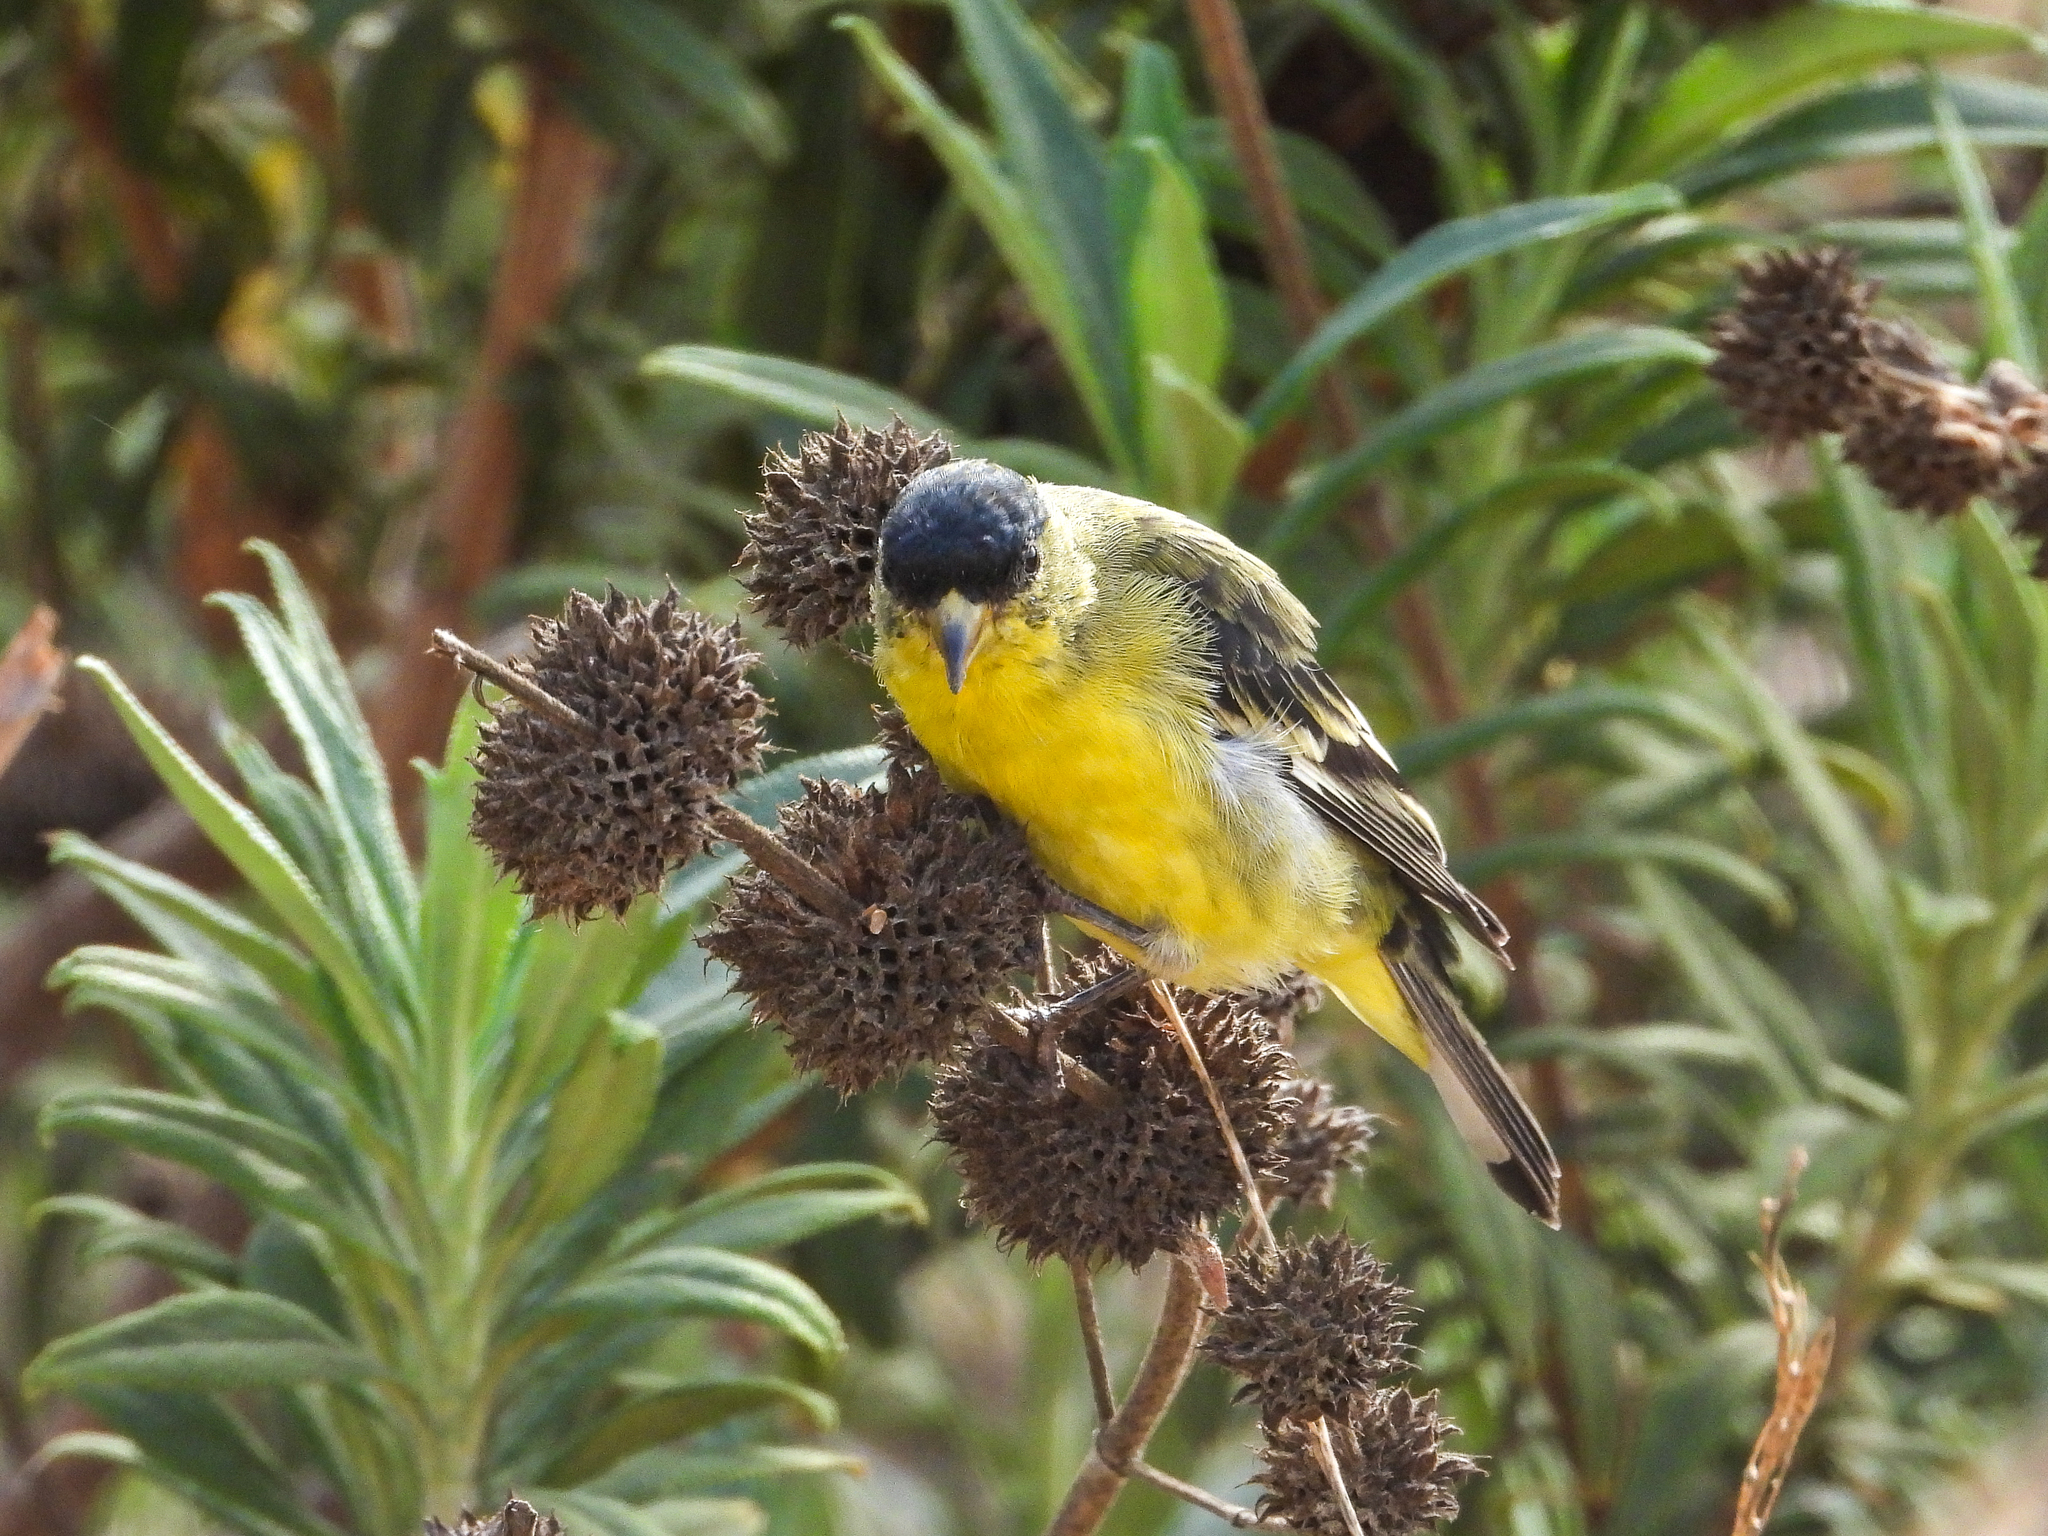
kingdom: Animalia
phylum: Chordata
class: Aves
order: Passeriformes
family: Fringillidae
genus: Spinus
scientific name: Spinus psaltria
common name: Lesser goldfinch
